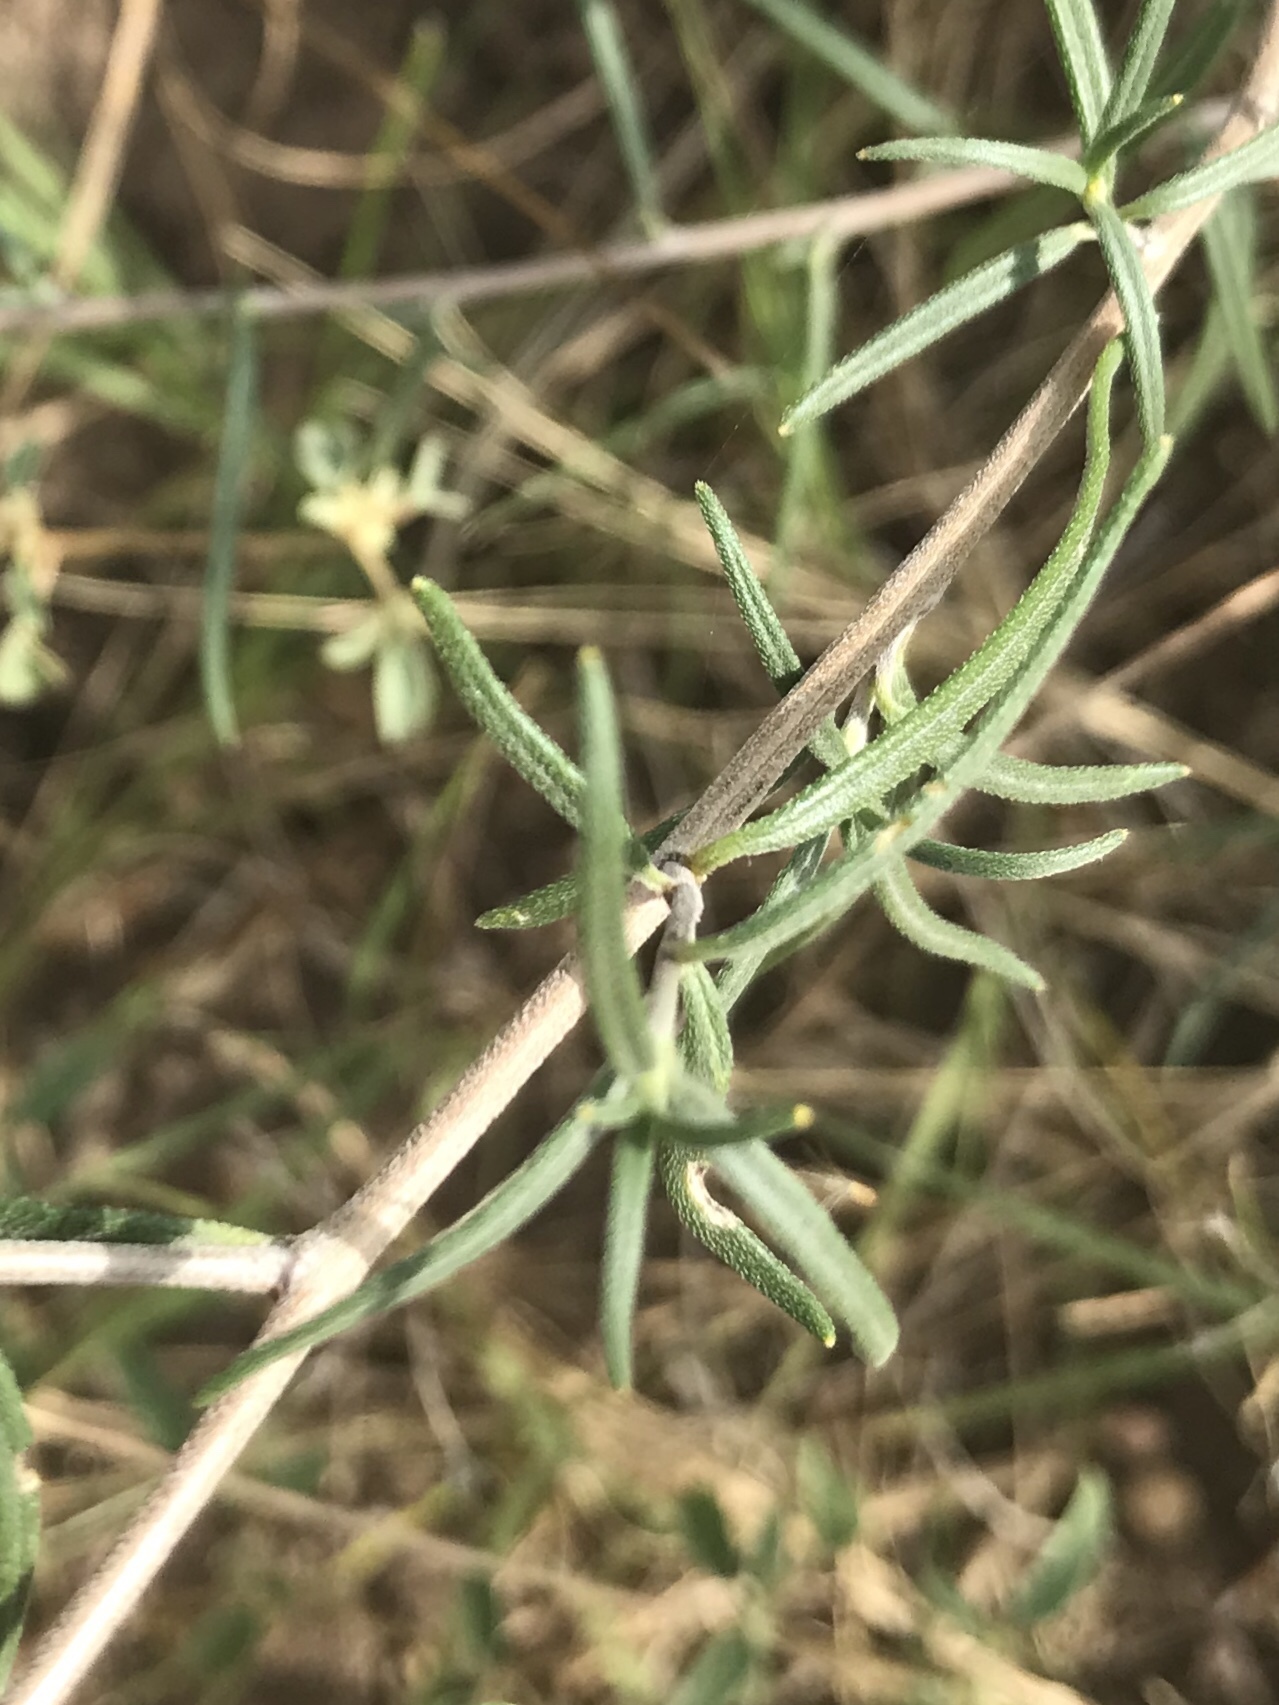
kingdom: Plantae
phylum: Tracheophyta
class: Magnoliopsida
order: Asterales
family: Asteraceae
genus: Palafoxia
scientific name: Palafoxia callosa
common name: Small palafox
